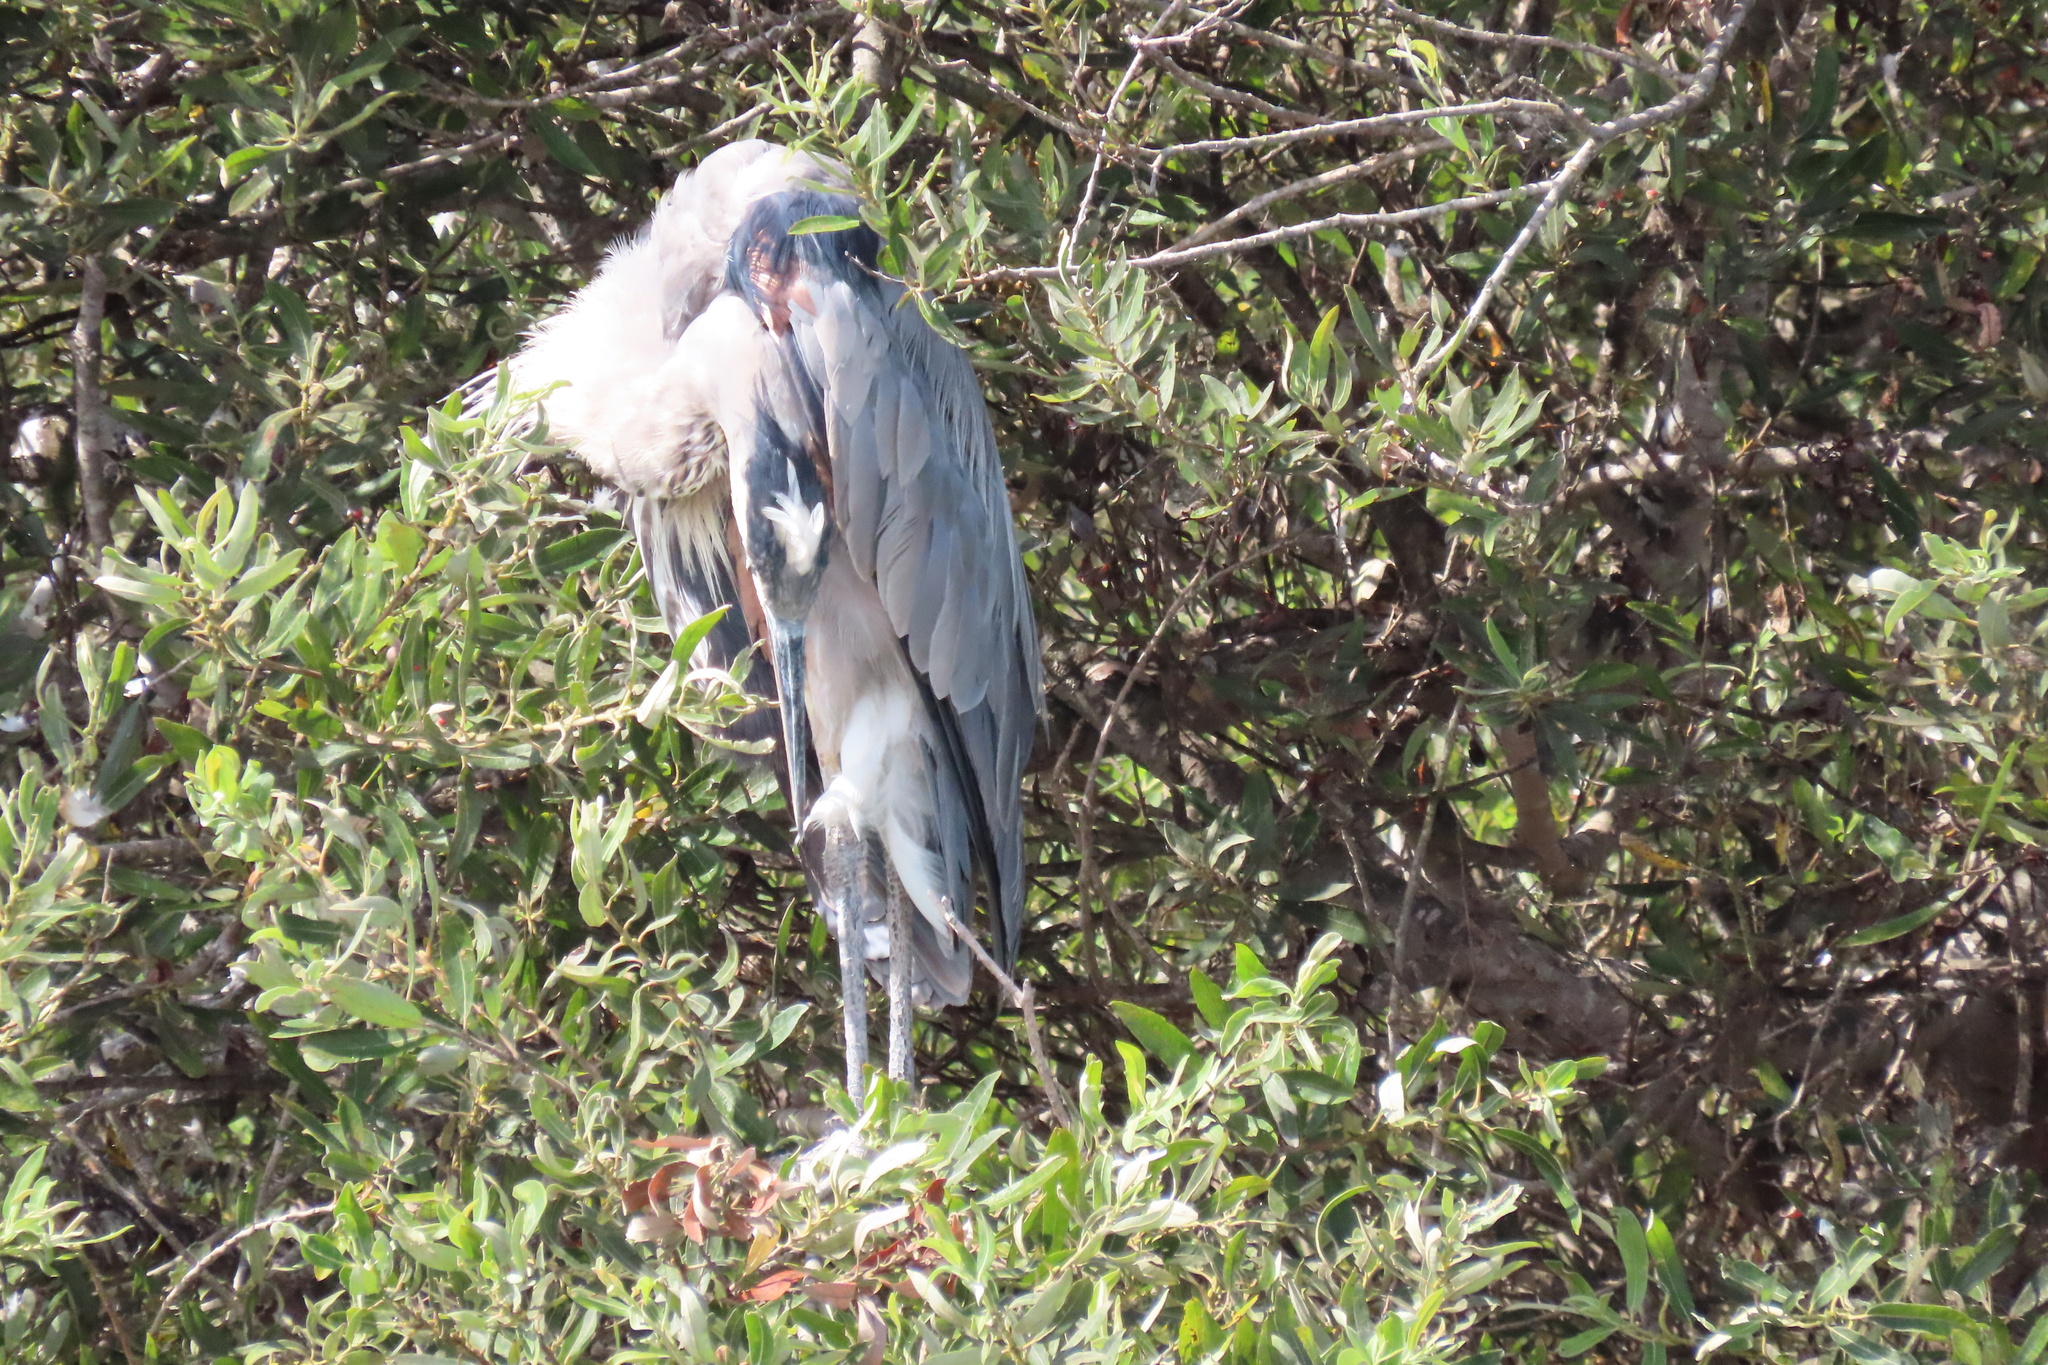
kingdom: Animalia
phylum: Chordata
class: Aves
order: Pelecaniformes
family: Ardeidae
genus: Ardea
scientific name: Ardea herodias
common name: Great blue heron
